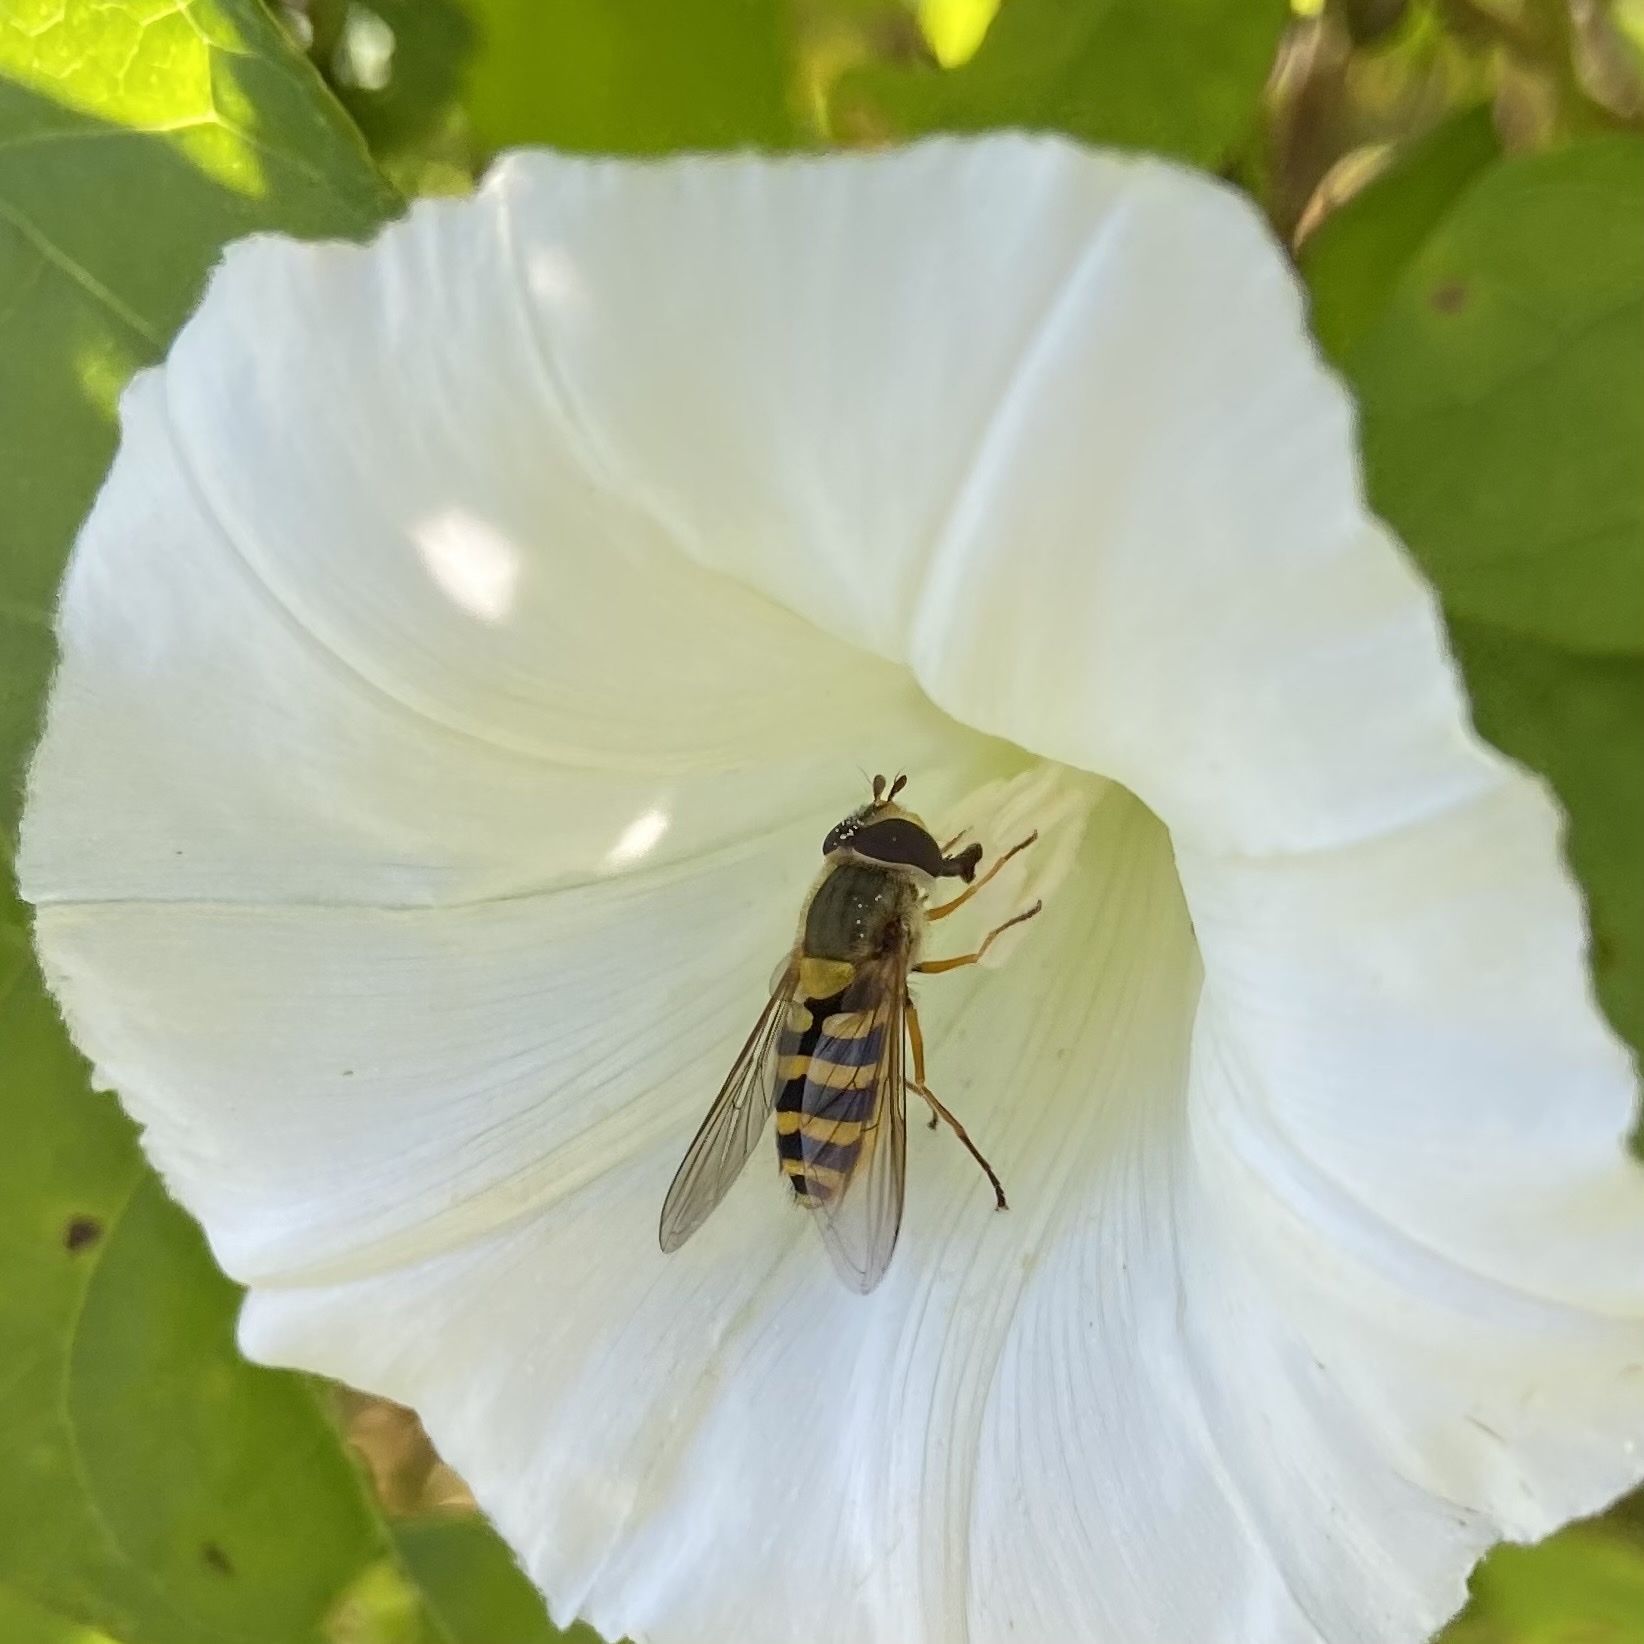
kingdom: Animalia
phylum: Arthropoda
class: Insecta
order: Diptera
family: Syrphidae
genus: Syrphus
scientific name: Syrphus ribesii
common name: Common flower fly
